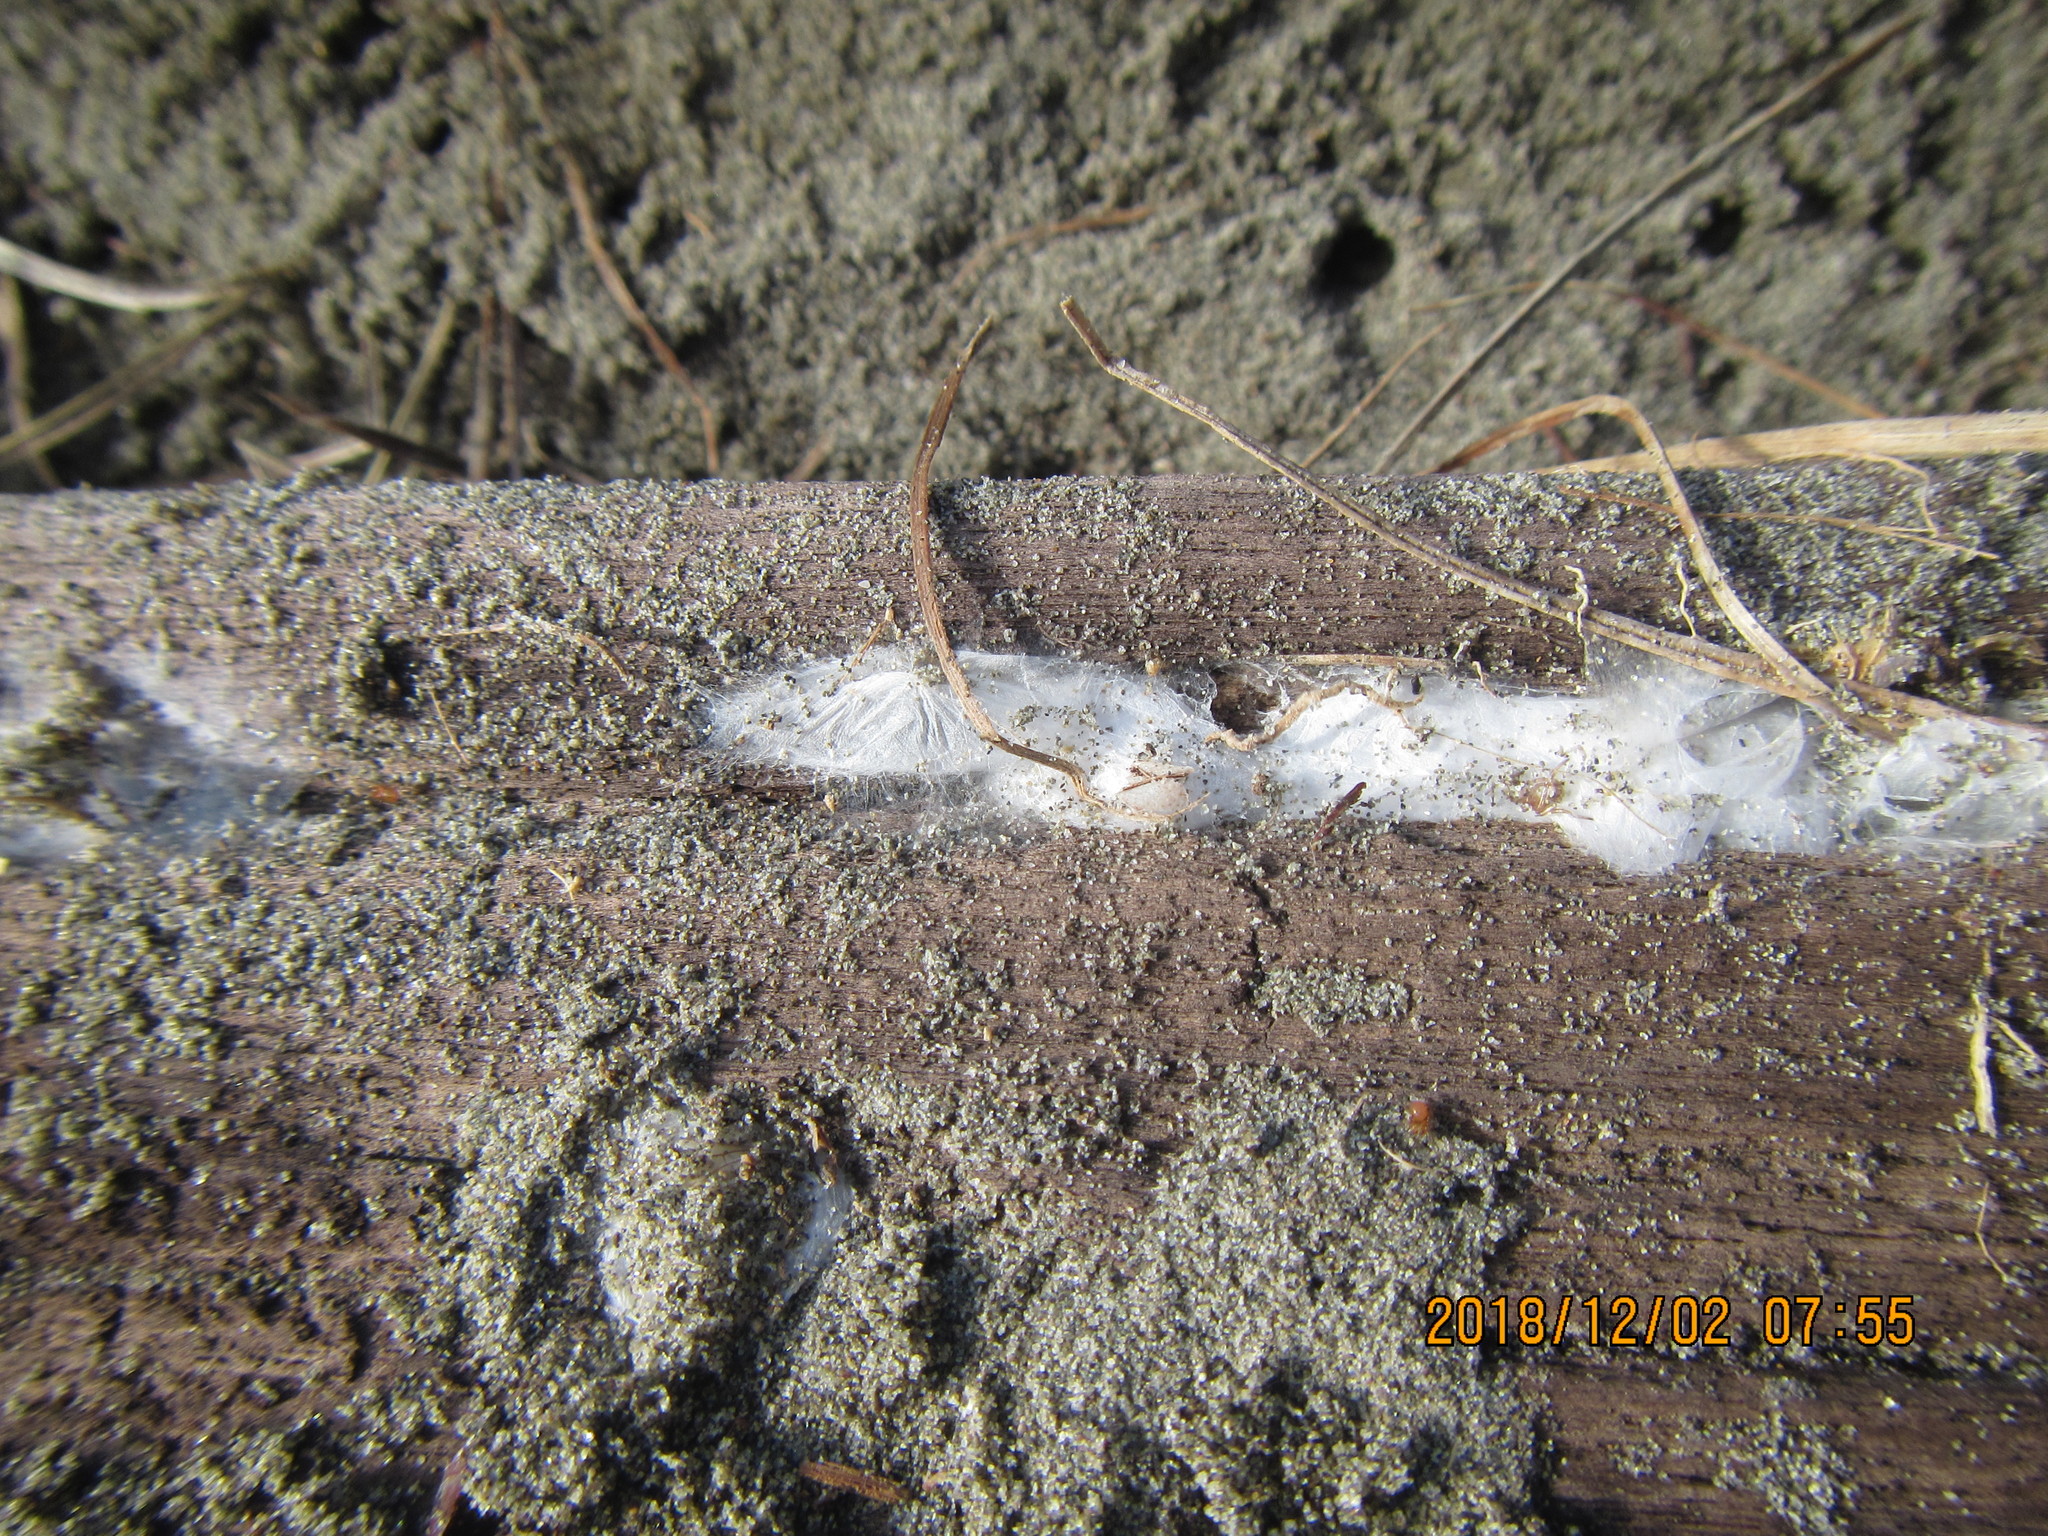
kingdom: Animalia
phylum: Arthropoda
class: Arachnida
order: Araneae
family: Theridiidae
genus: Steatoda
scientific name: Steatoda lepida
